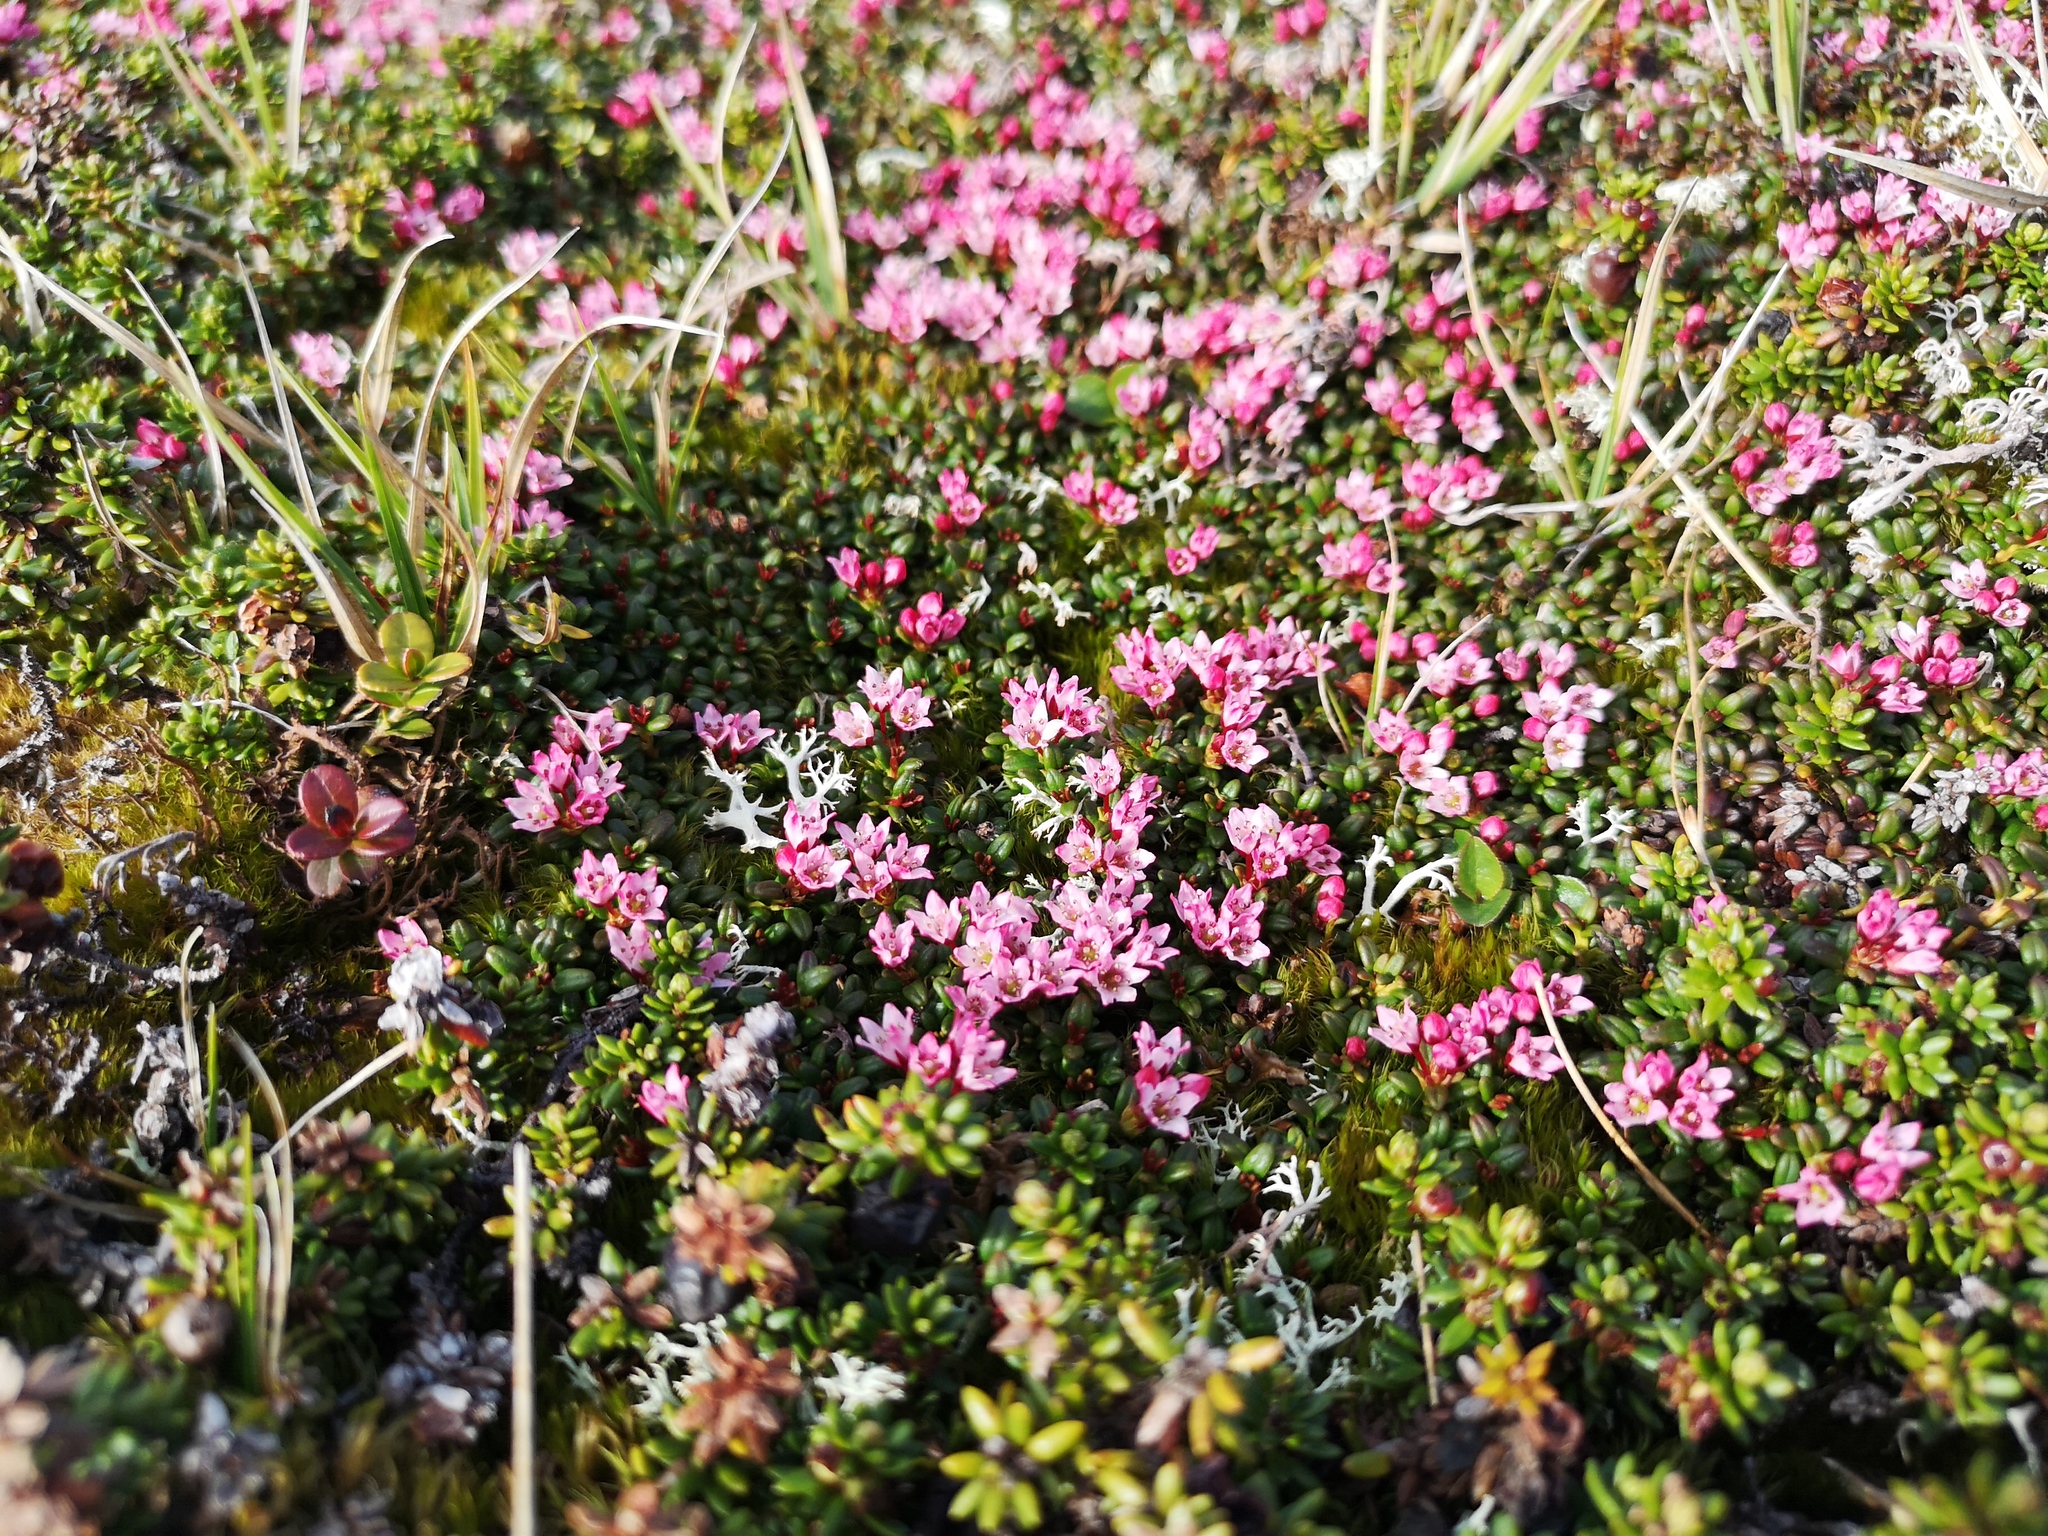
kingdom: Plantae
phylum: Tracheophyta
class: Magnoliopsida
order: Ericales
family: Ericaceae
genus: Kalmia
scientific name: Kalmia procumbens
